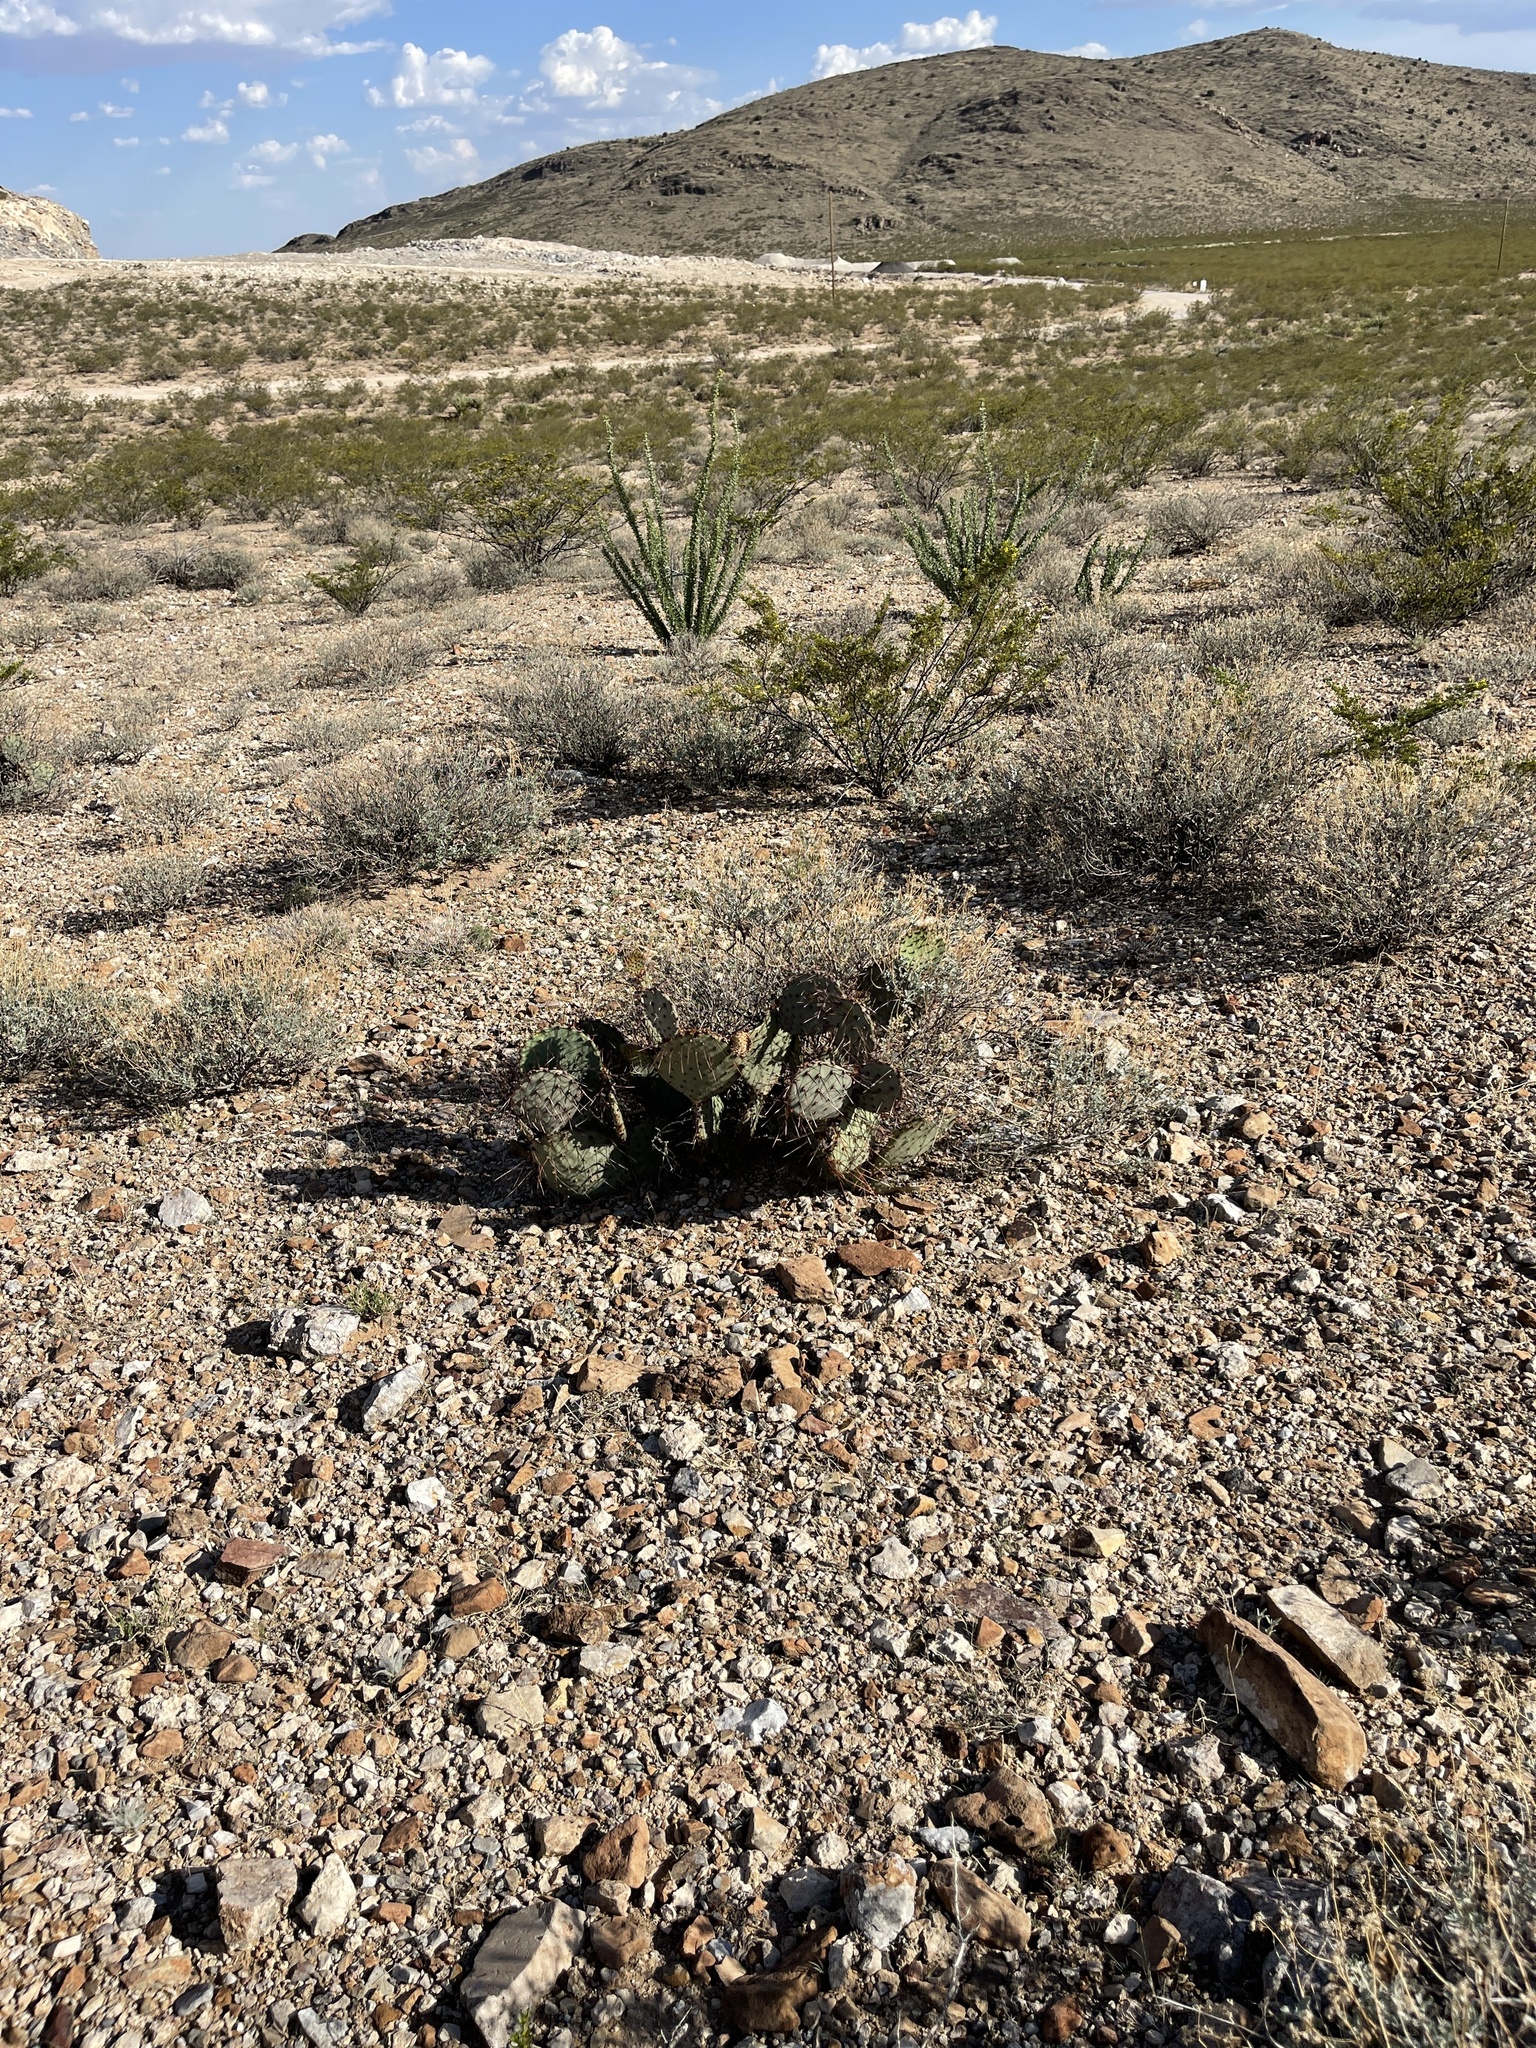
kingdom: Plantae
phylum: Tracheophyta
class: Magnoliopsida
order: Caryophyllales
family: Cactaceae
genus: Opuntia
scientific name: Opuntia macrocentra
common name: Purple prickly-pear
